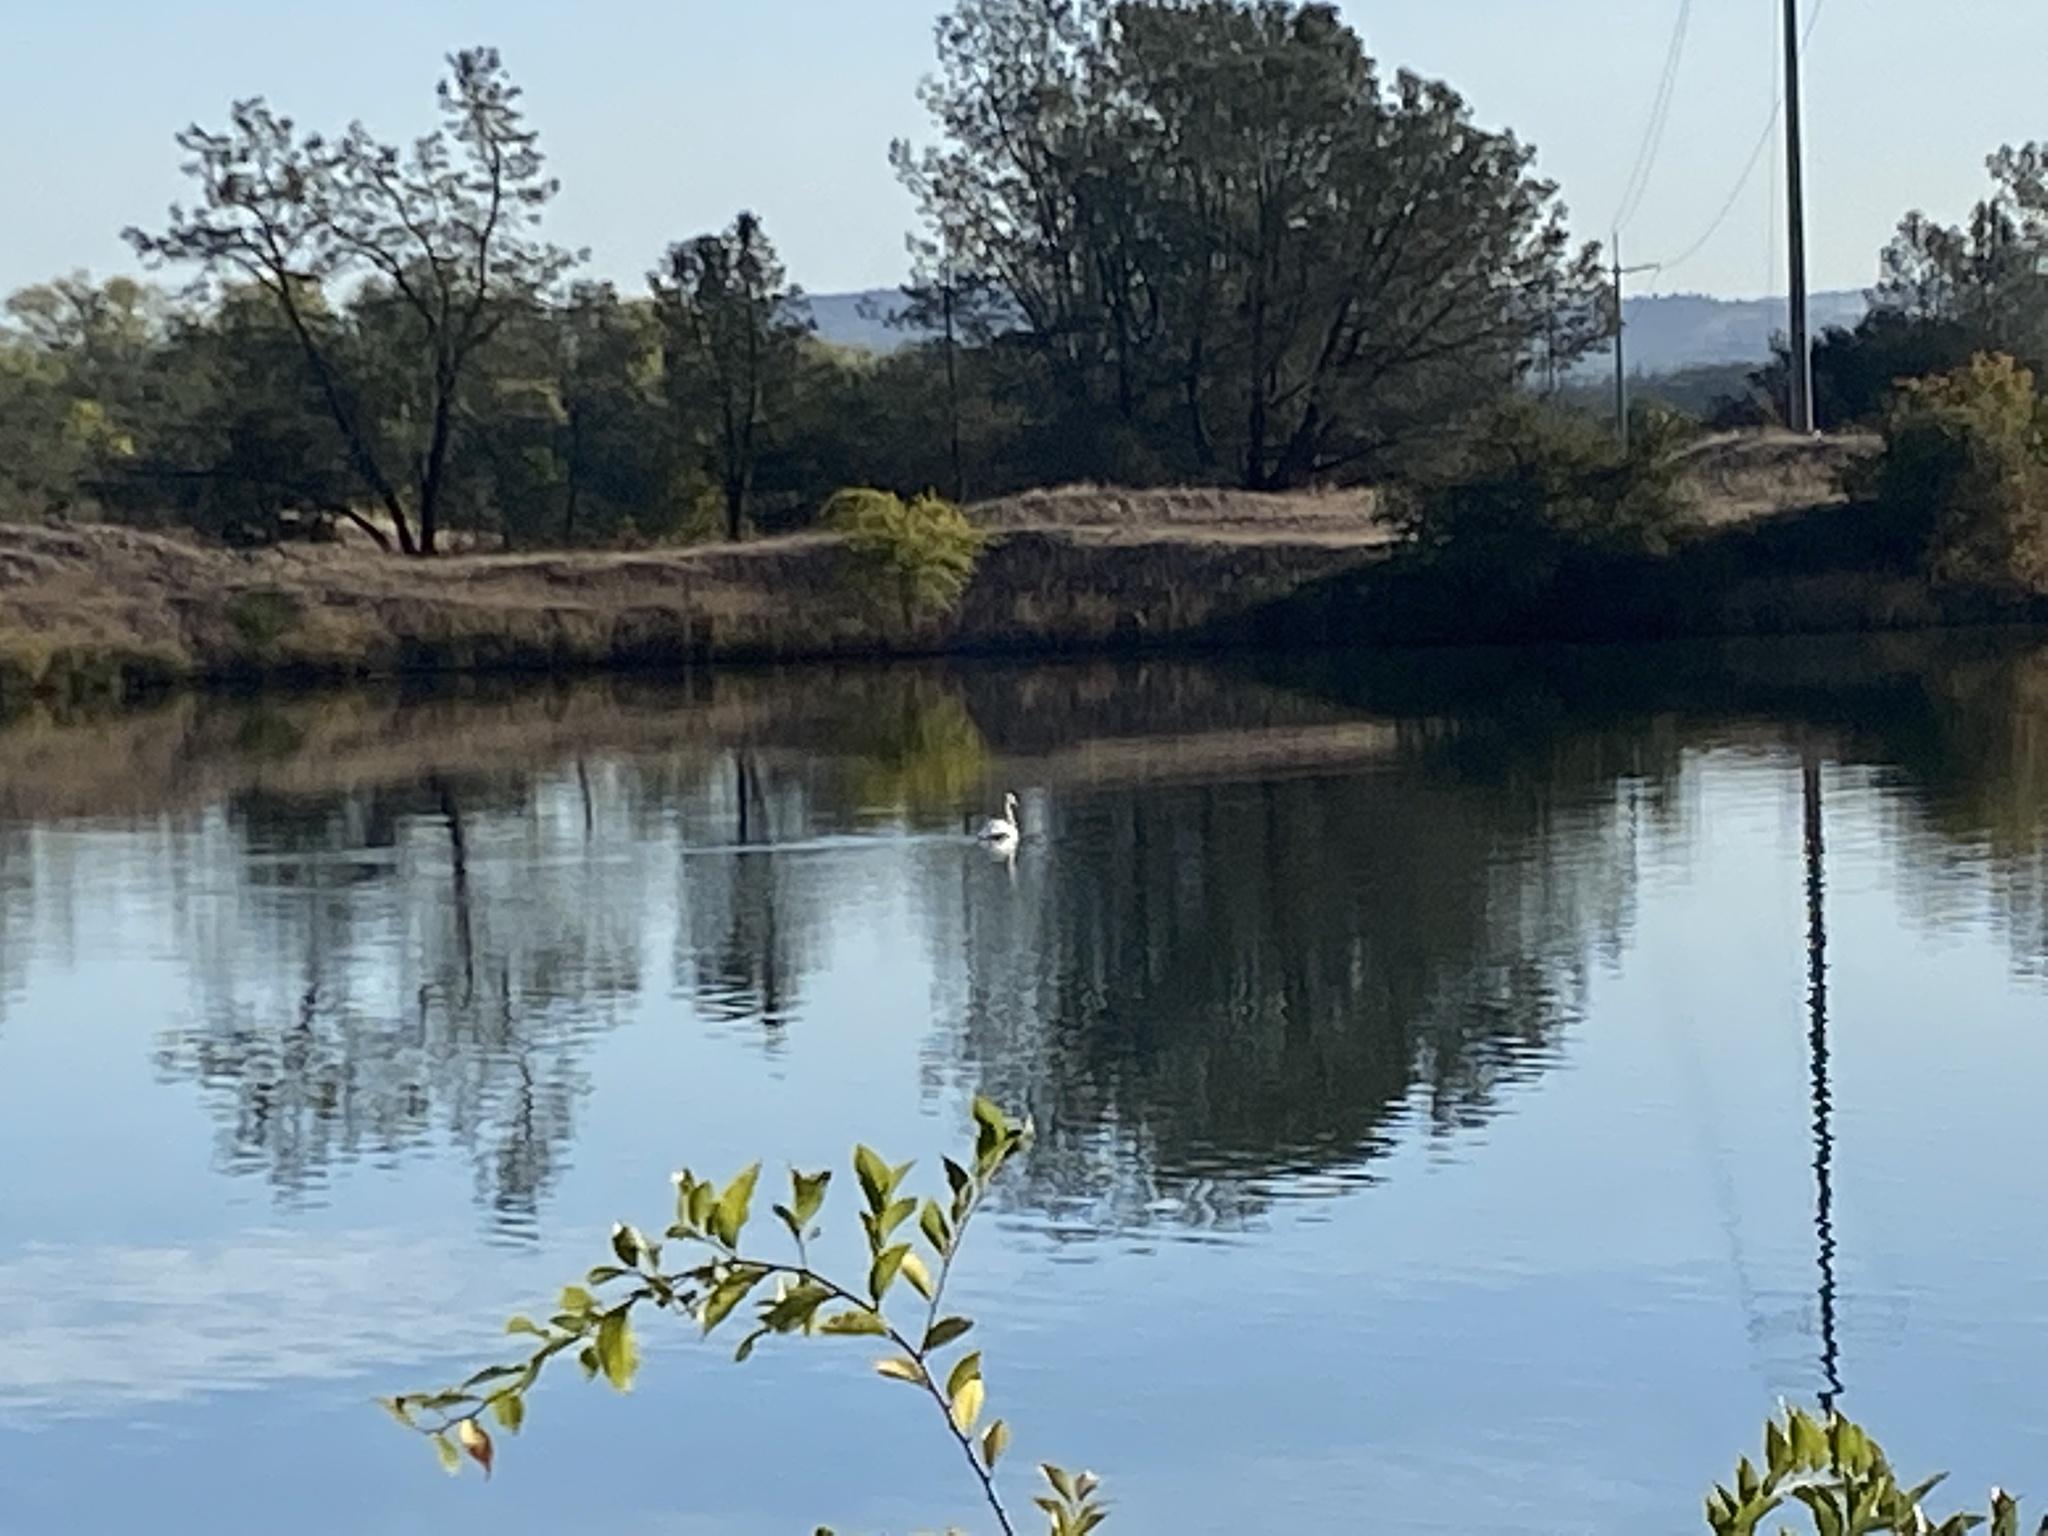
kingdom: Animalia
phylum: Chordata
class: Aves
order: Anseriformes
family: Anatidae
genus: Cygnus
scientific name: Cygnus olor
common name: Mute swan
